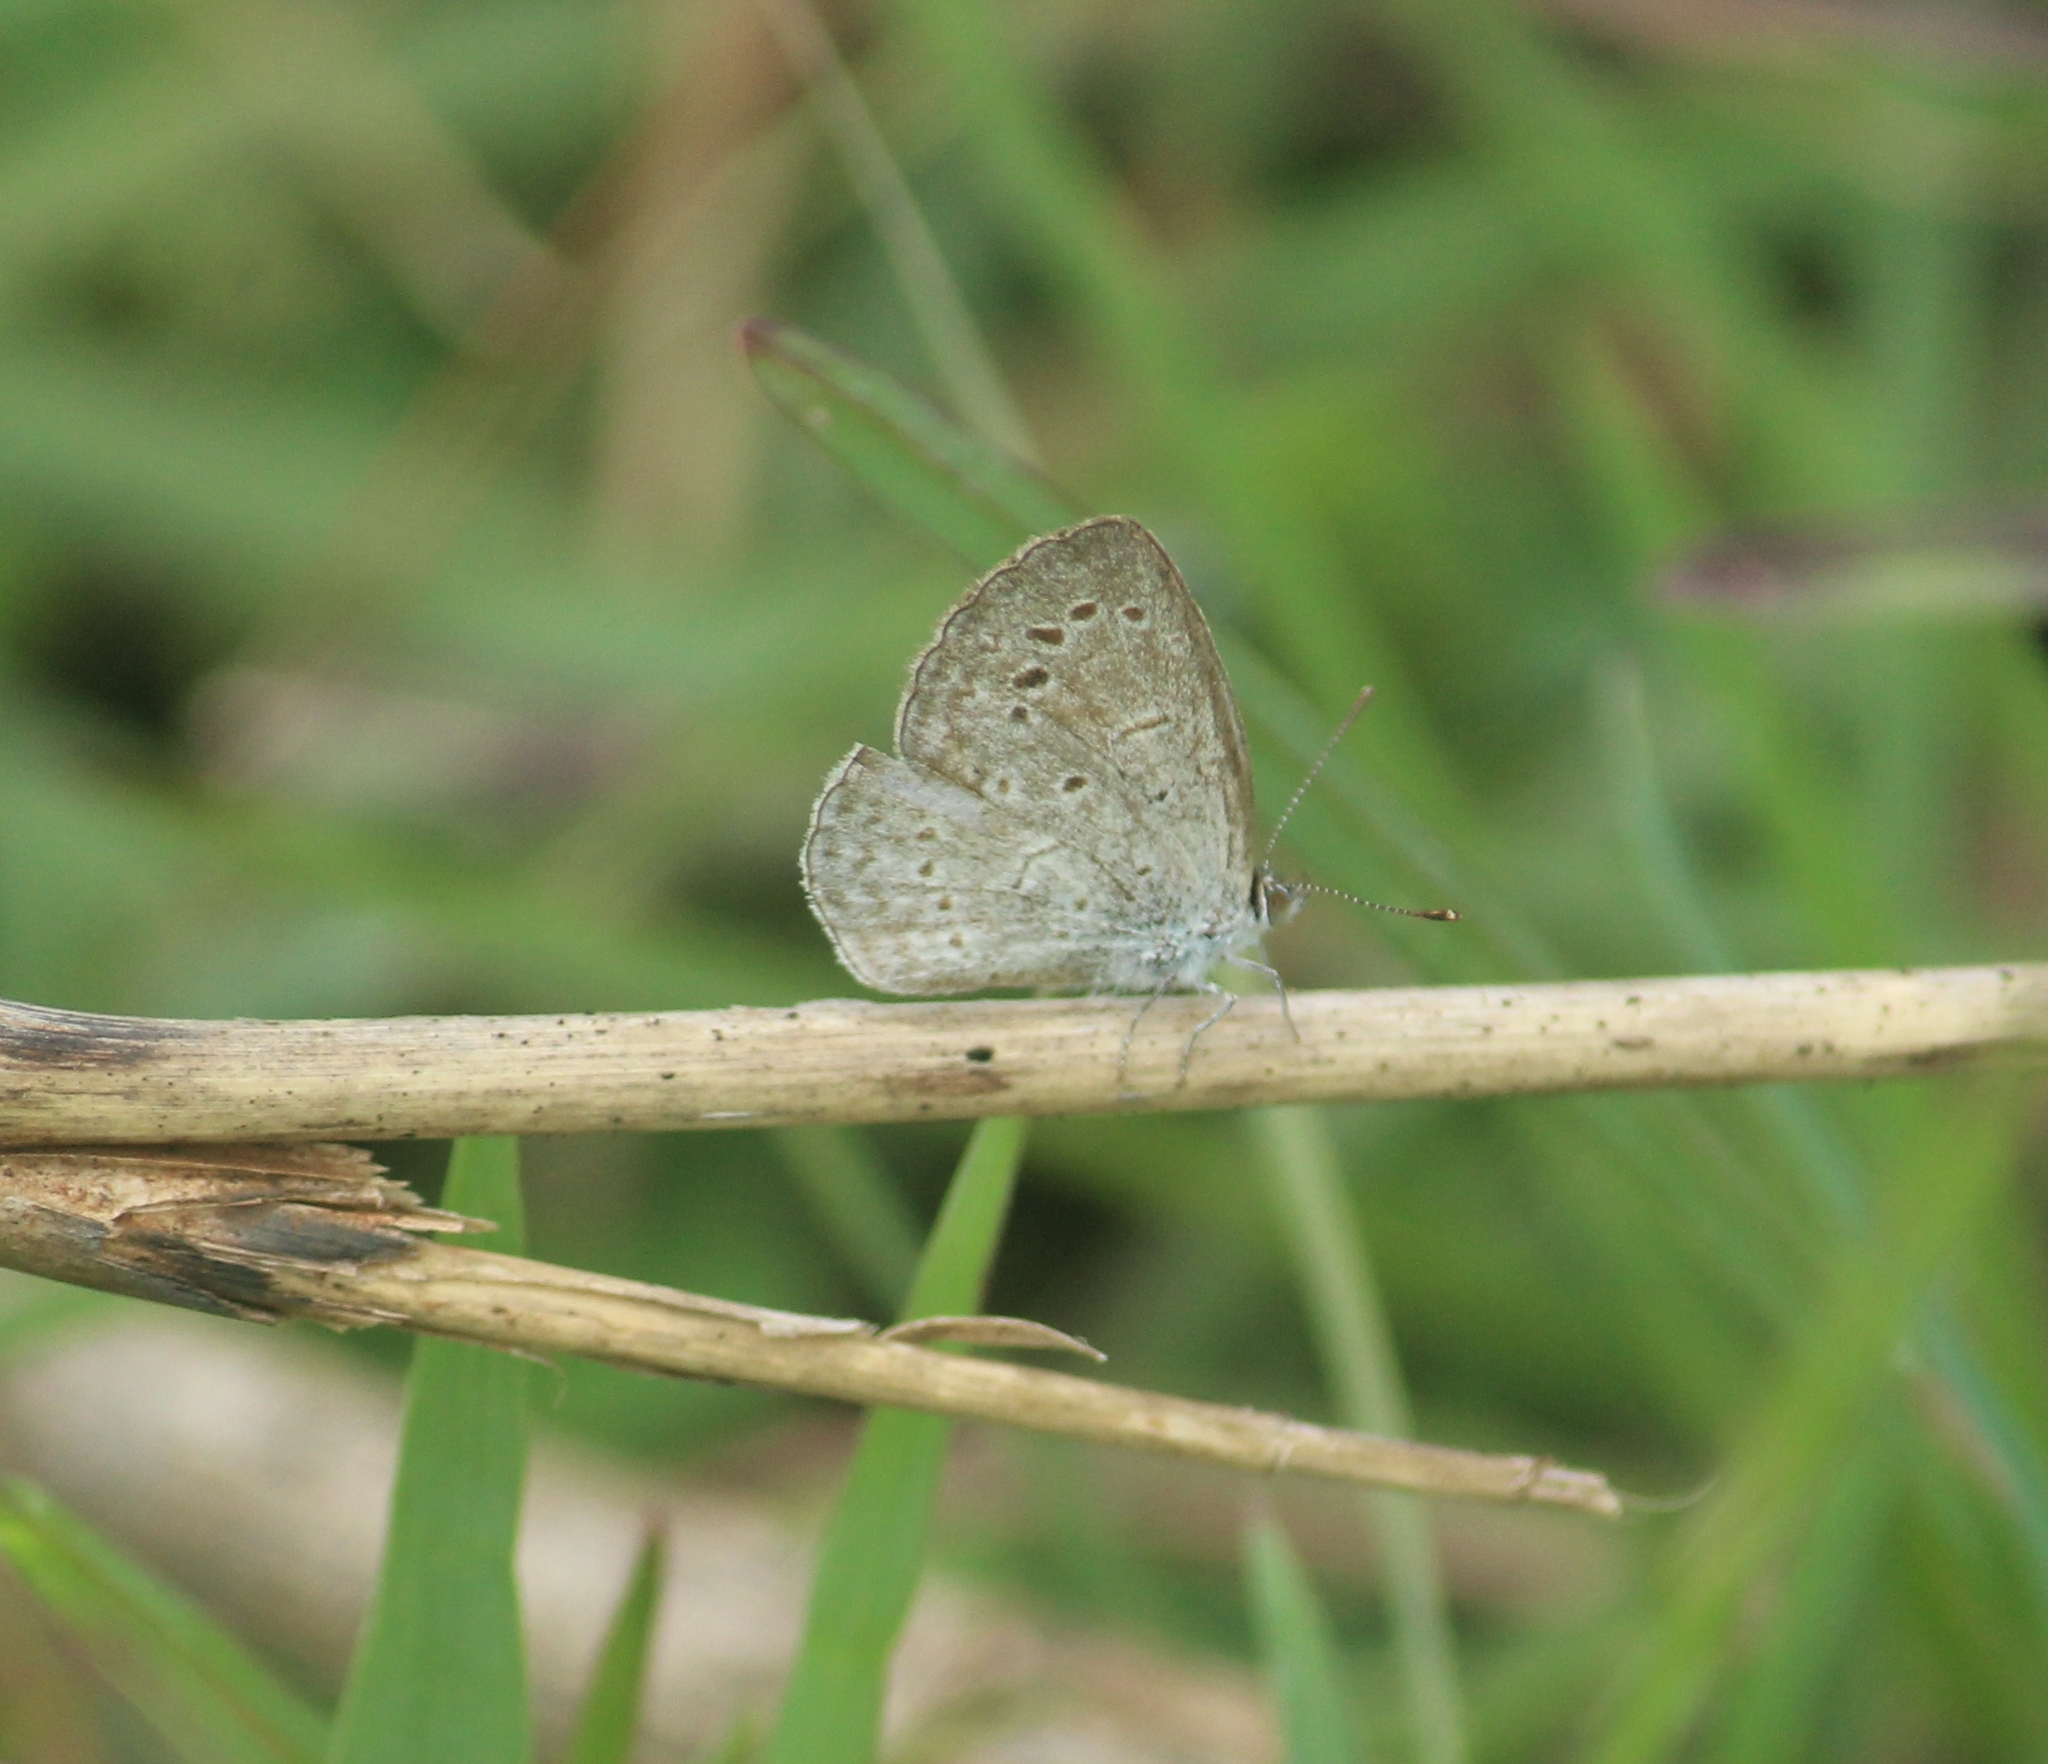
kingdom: Animalia
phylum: Arthropoda
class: Insecta
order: Lepidoptera
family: Lycaenidae
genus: Pseudozizeeria
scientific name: Pseudozizeeria maha
